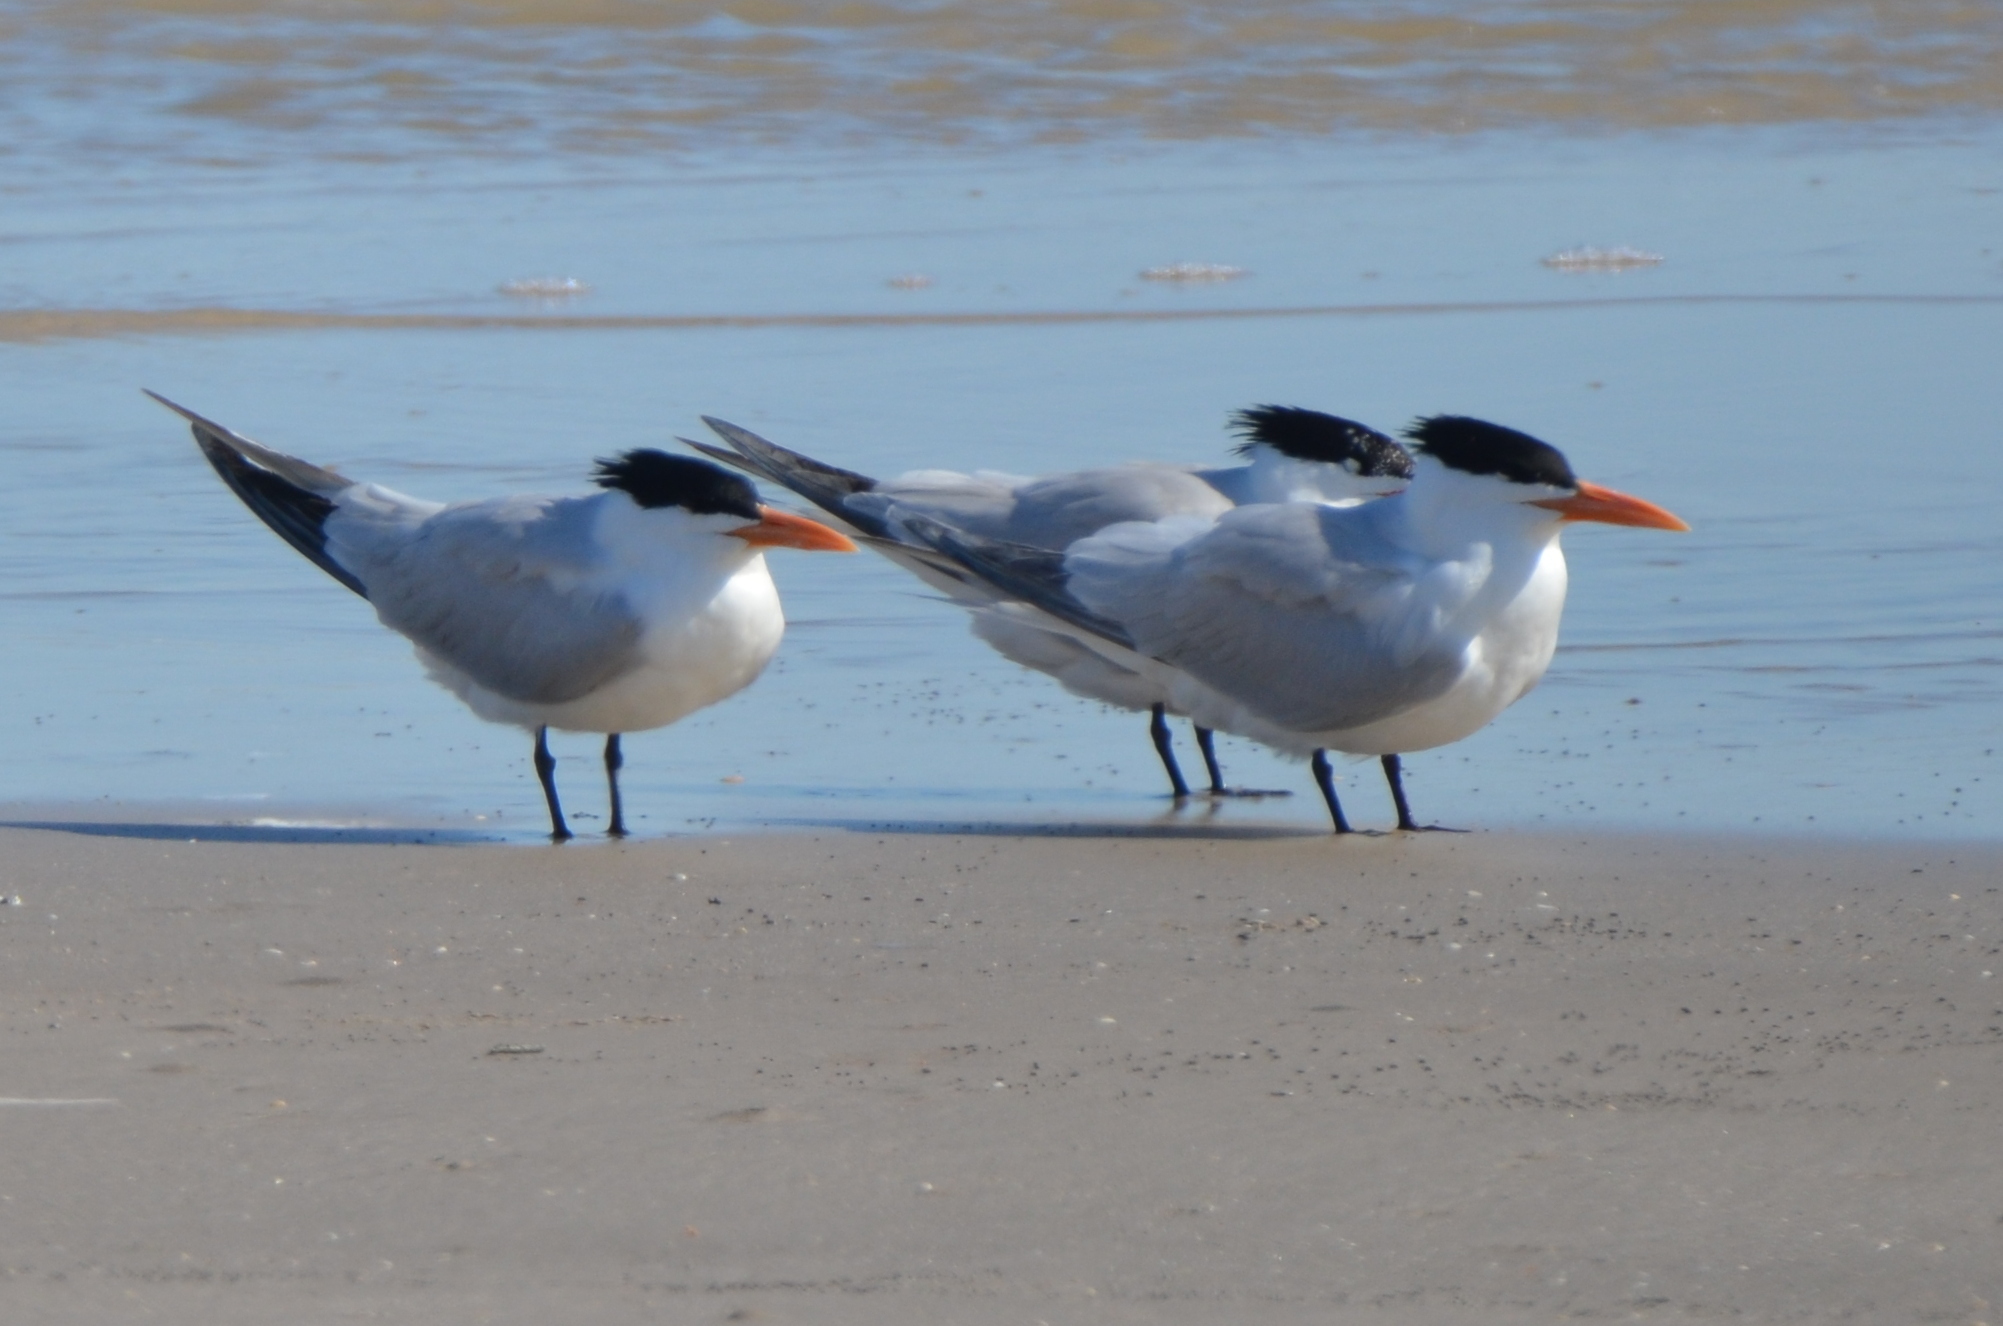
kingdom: Animalia
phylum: Chordata
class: Aves
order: Charadriiformes
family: Laridae
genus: Thalasseus
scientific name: Thalasseus maximus
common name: Royal tern
